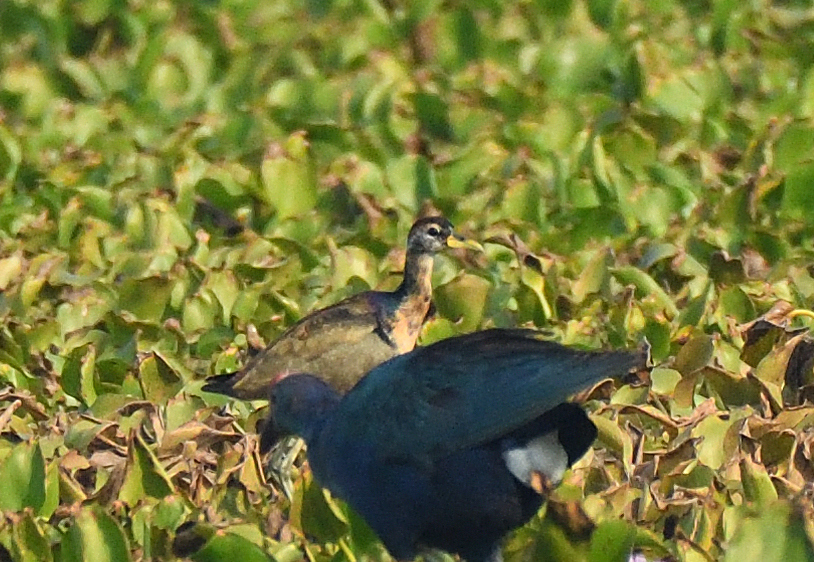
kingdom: Animalia
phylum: Chordata
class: Aves
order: Charadriiformes
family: Jacanidae
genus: Metopidius
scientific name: Metopidius indicus
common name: Bronze-winged jacana
